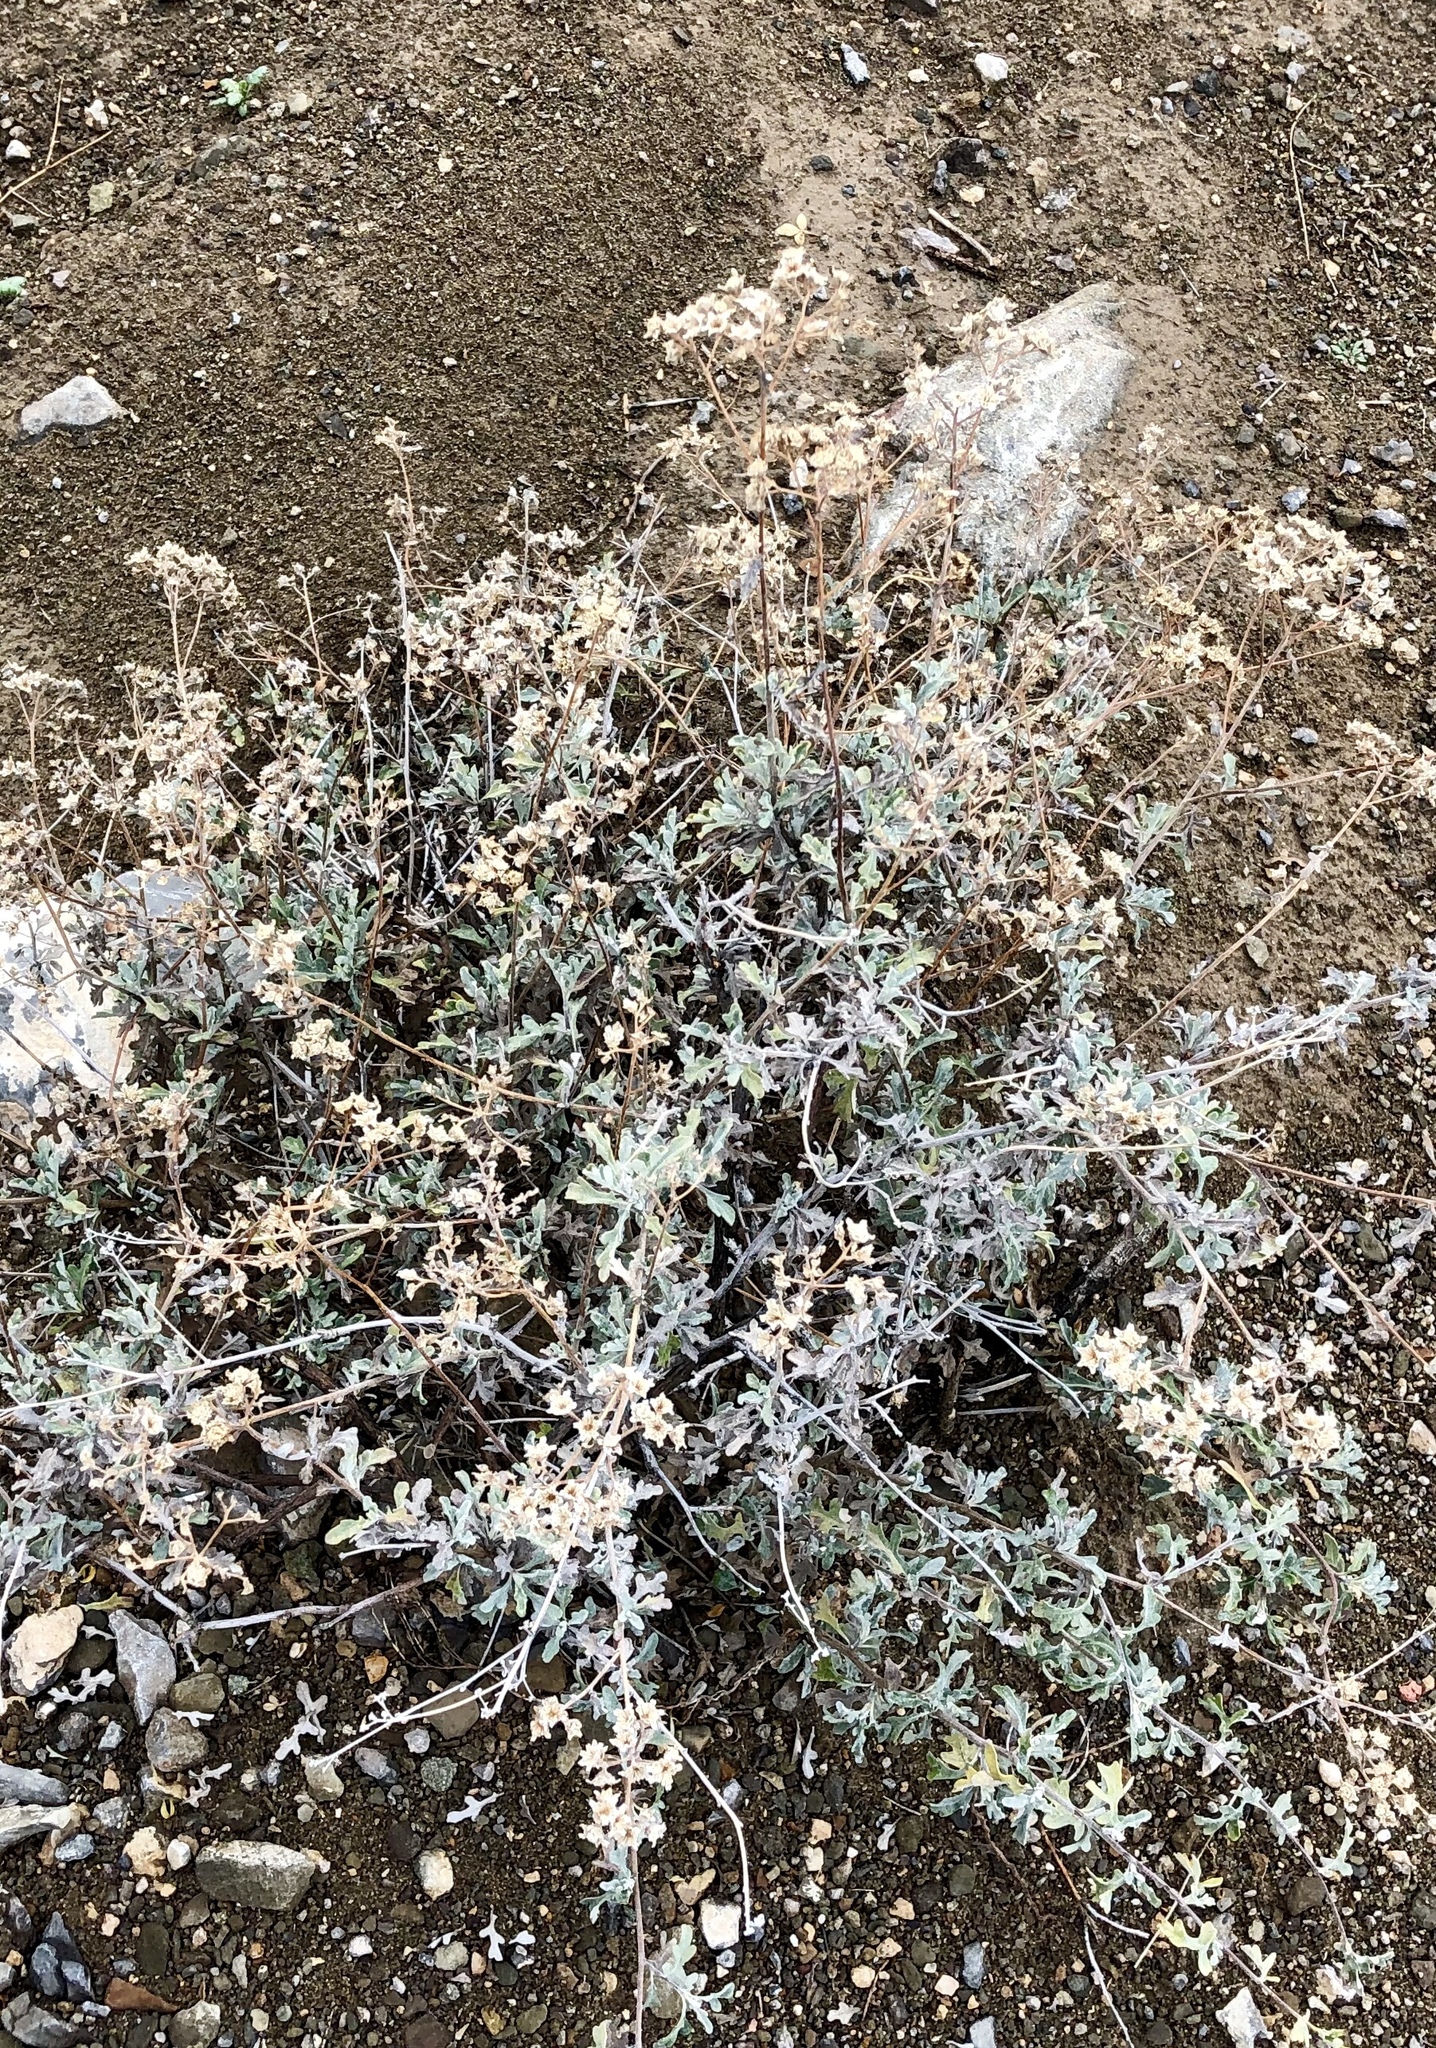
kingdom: Plantae
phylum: Tracheophyta
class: Magnoliopsida
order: Asterales
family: Asteraceae
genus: Parthenium
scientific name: Parthenium incanum
